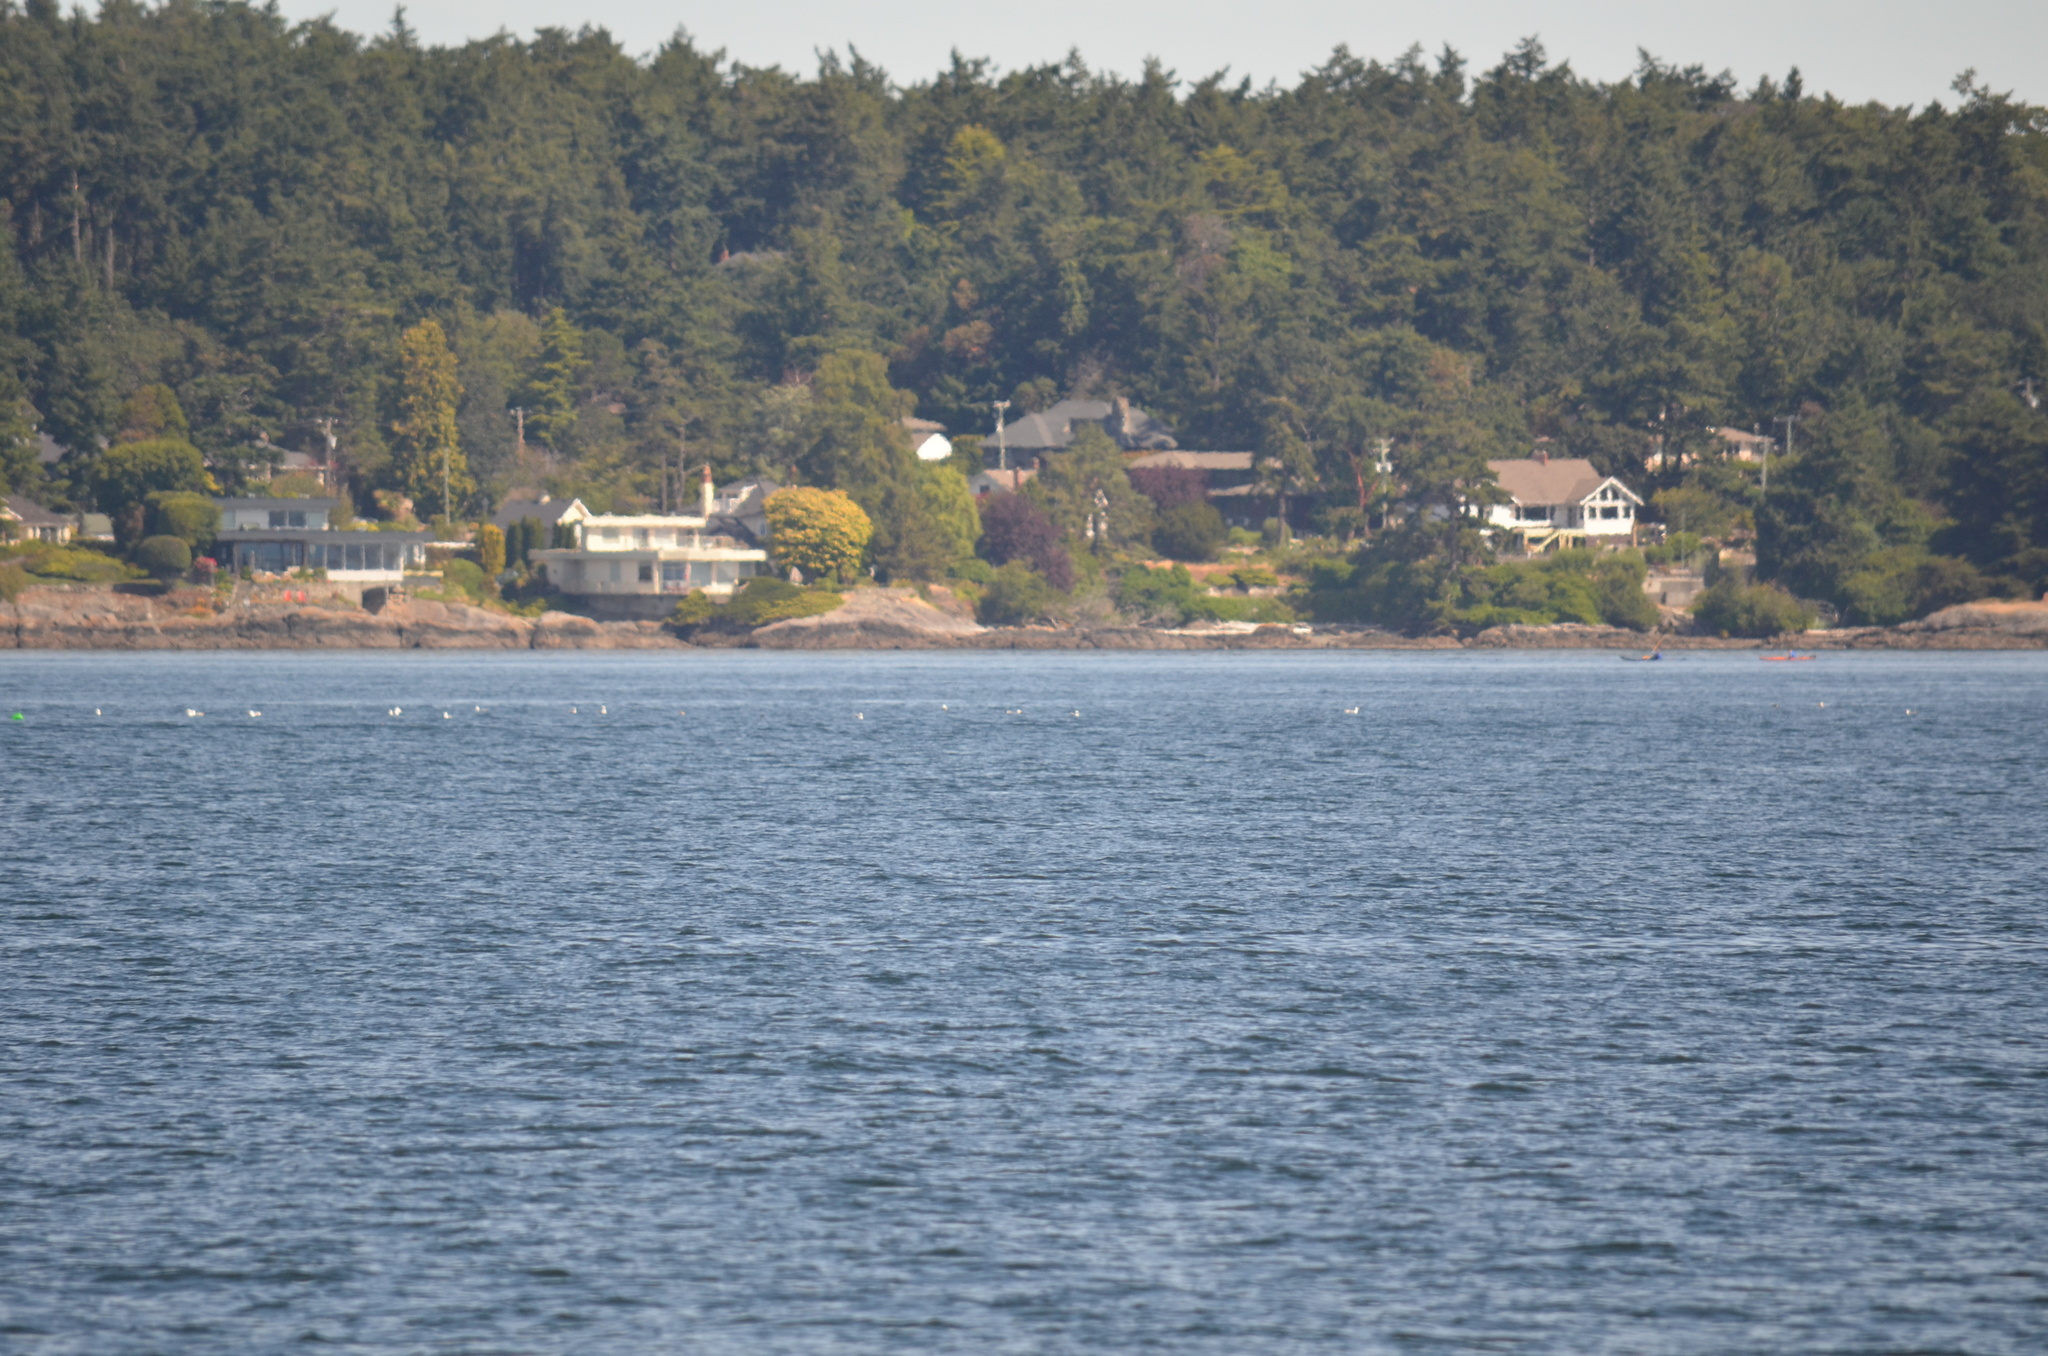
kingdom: Animalia
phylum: Chordata
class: Aves
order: Charadriiformes
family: Laridae
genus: Larus
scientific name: Larus brachyrhynchus
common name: Short-billed gull
